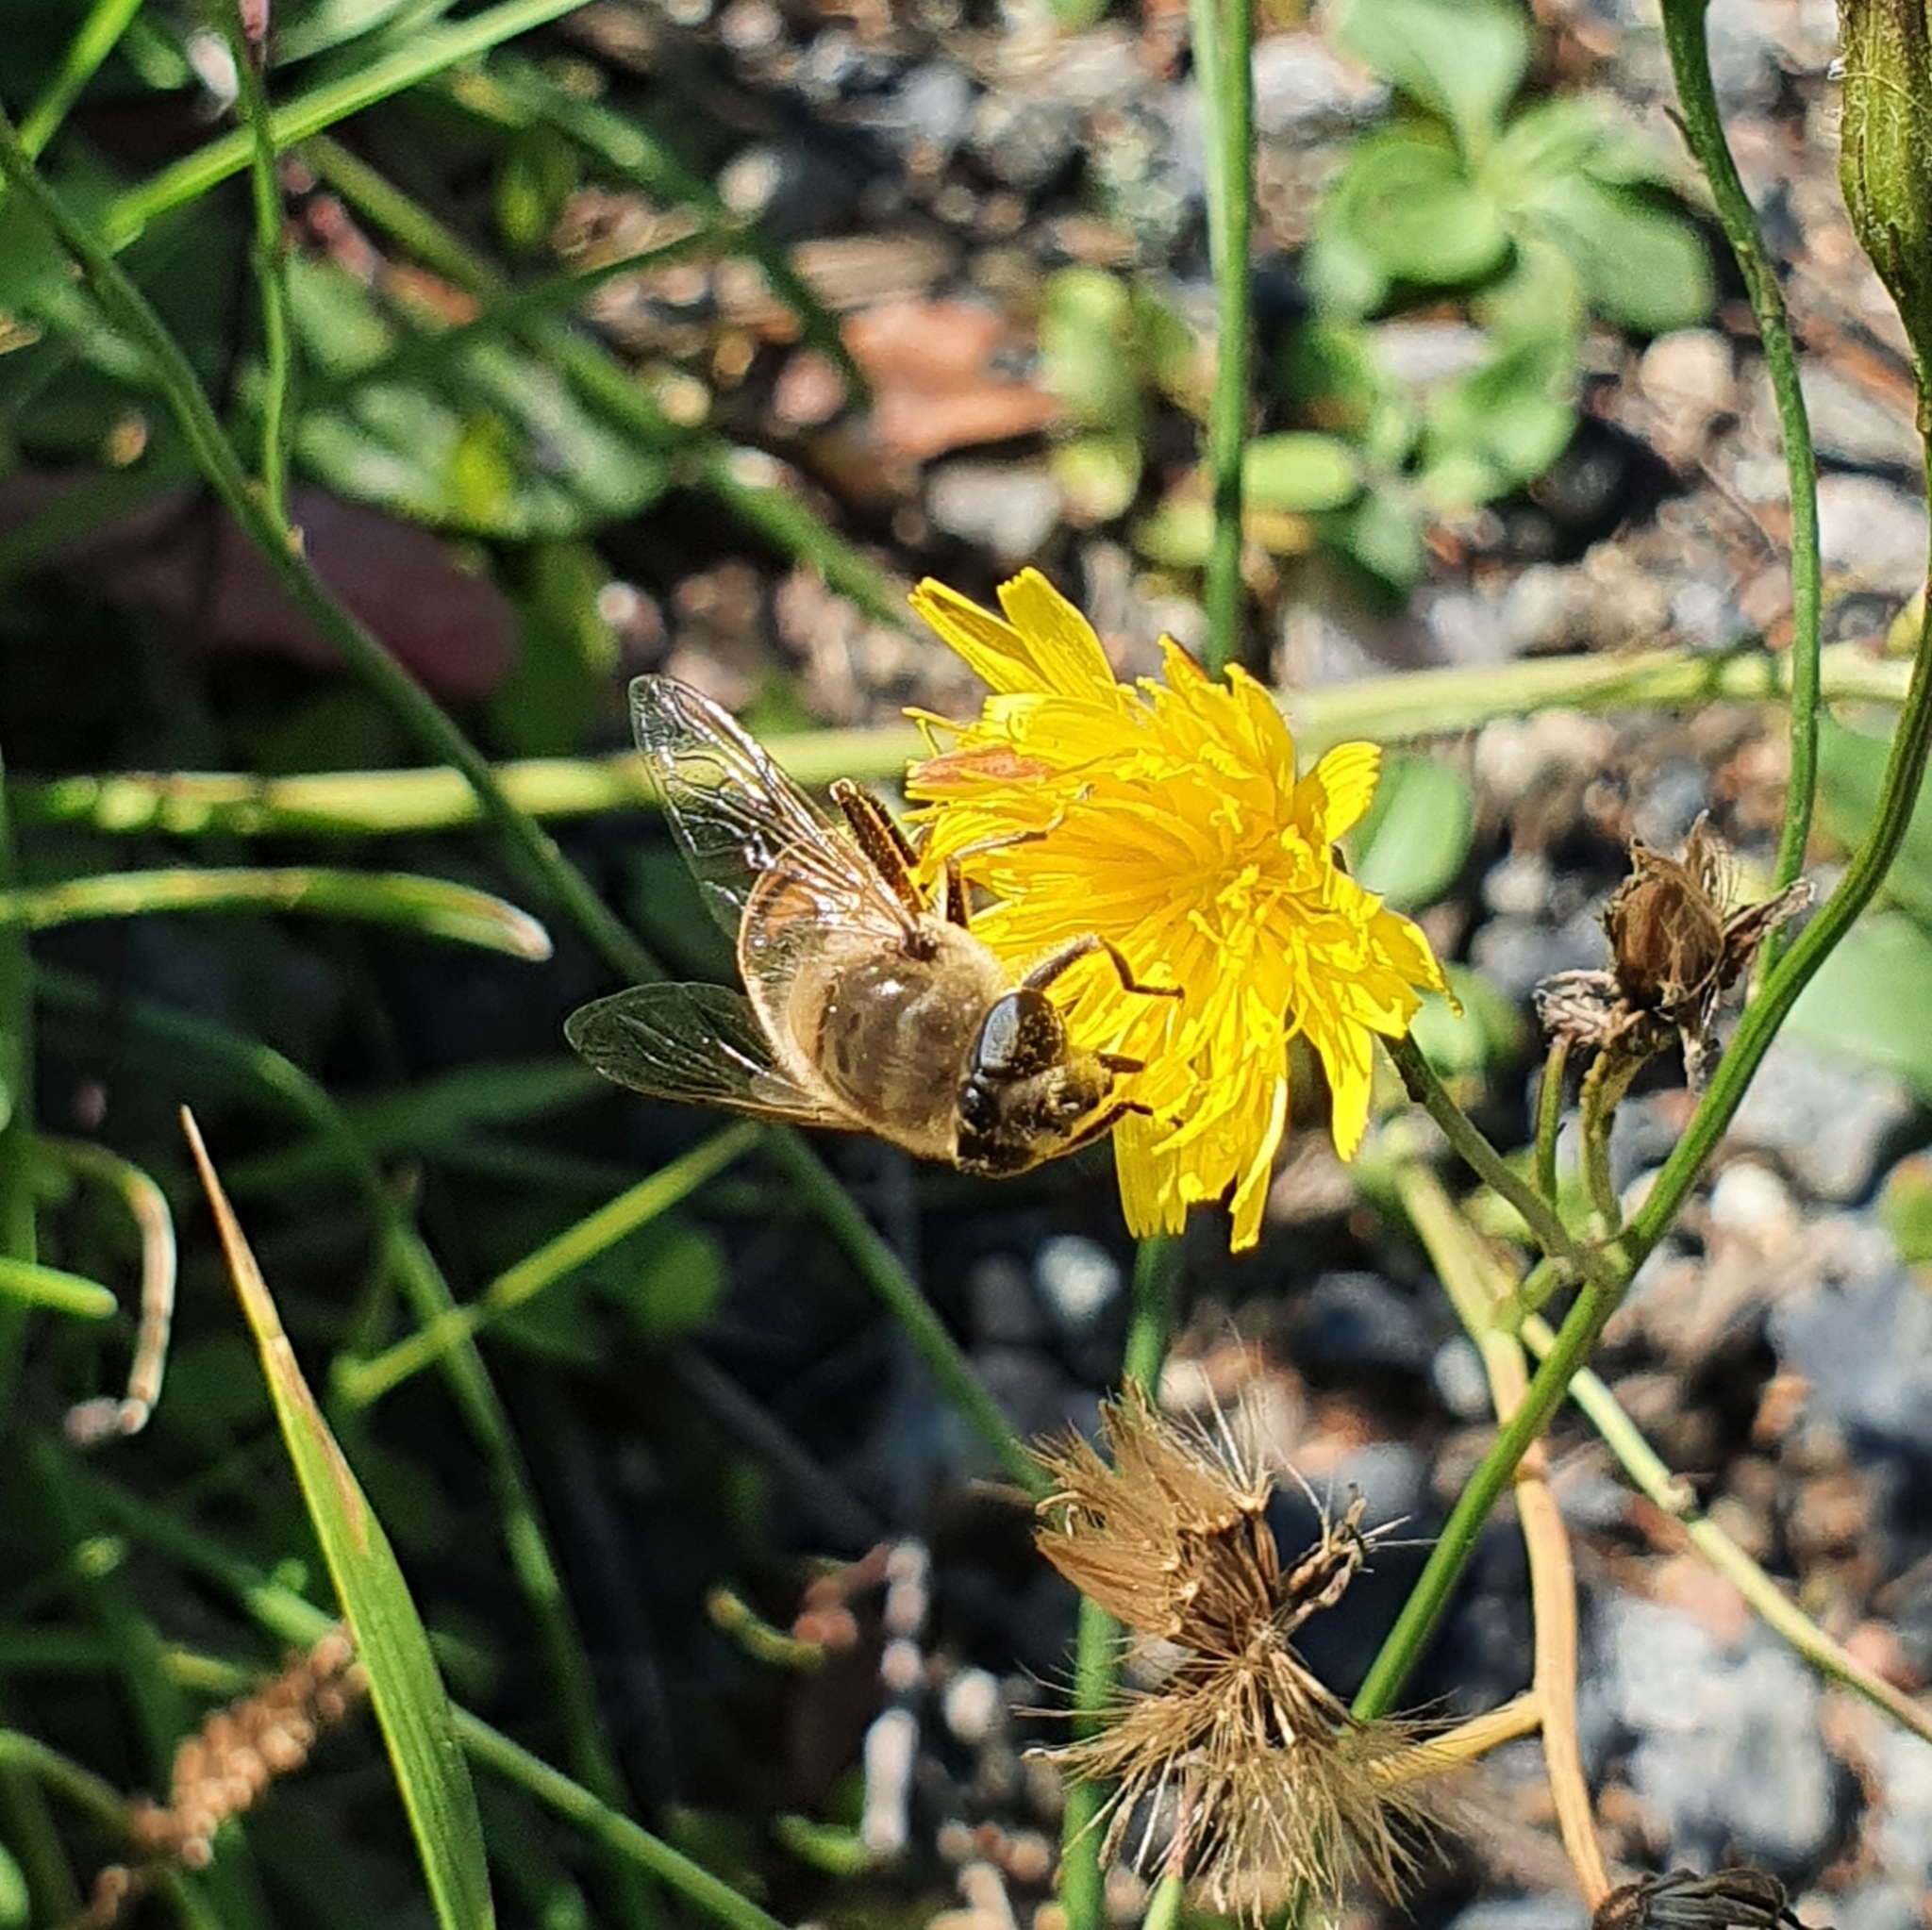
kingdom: Animalia
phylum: Arthropoda
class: Insecta
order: Diptera
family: Syrphidae
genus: Eristalis
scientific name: Eristalis tenax
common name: Drone fly
